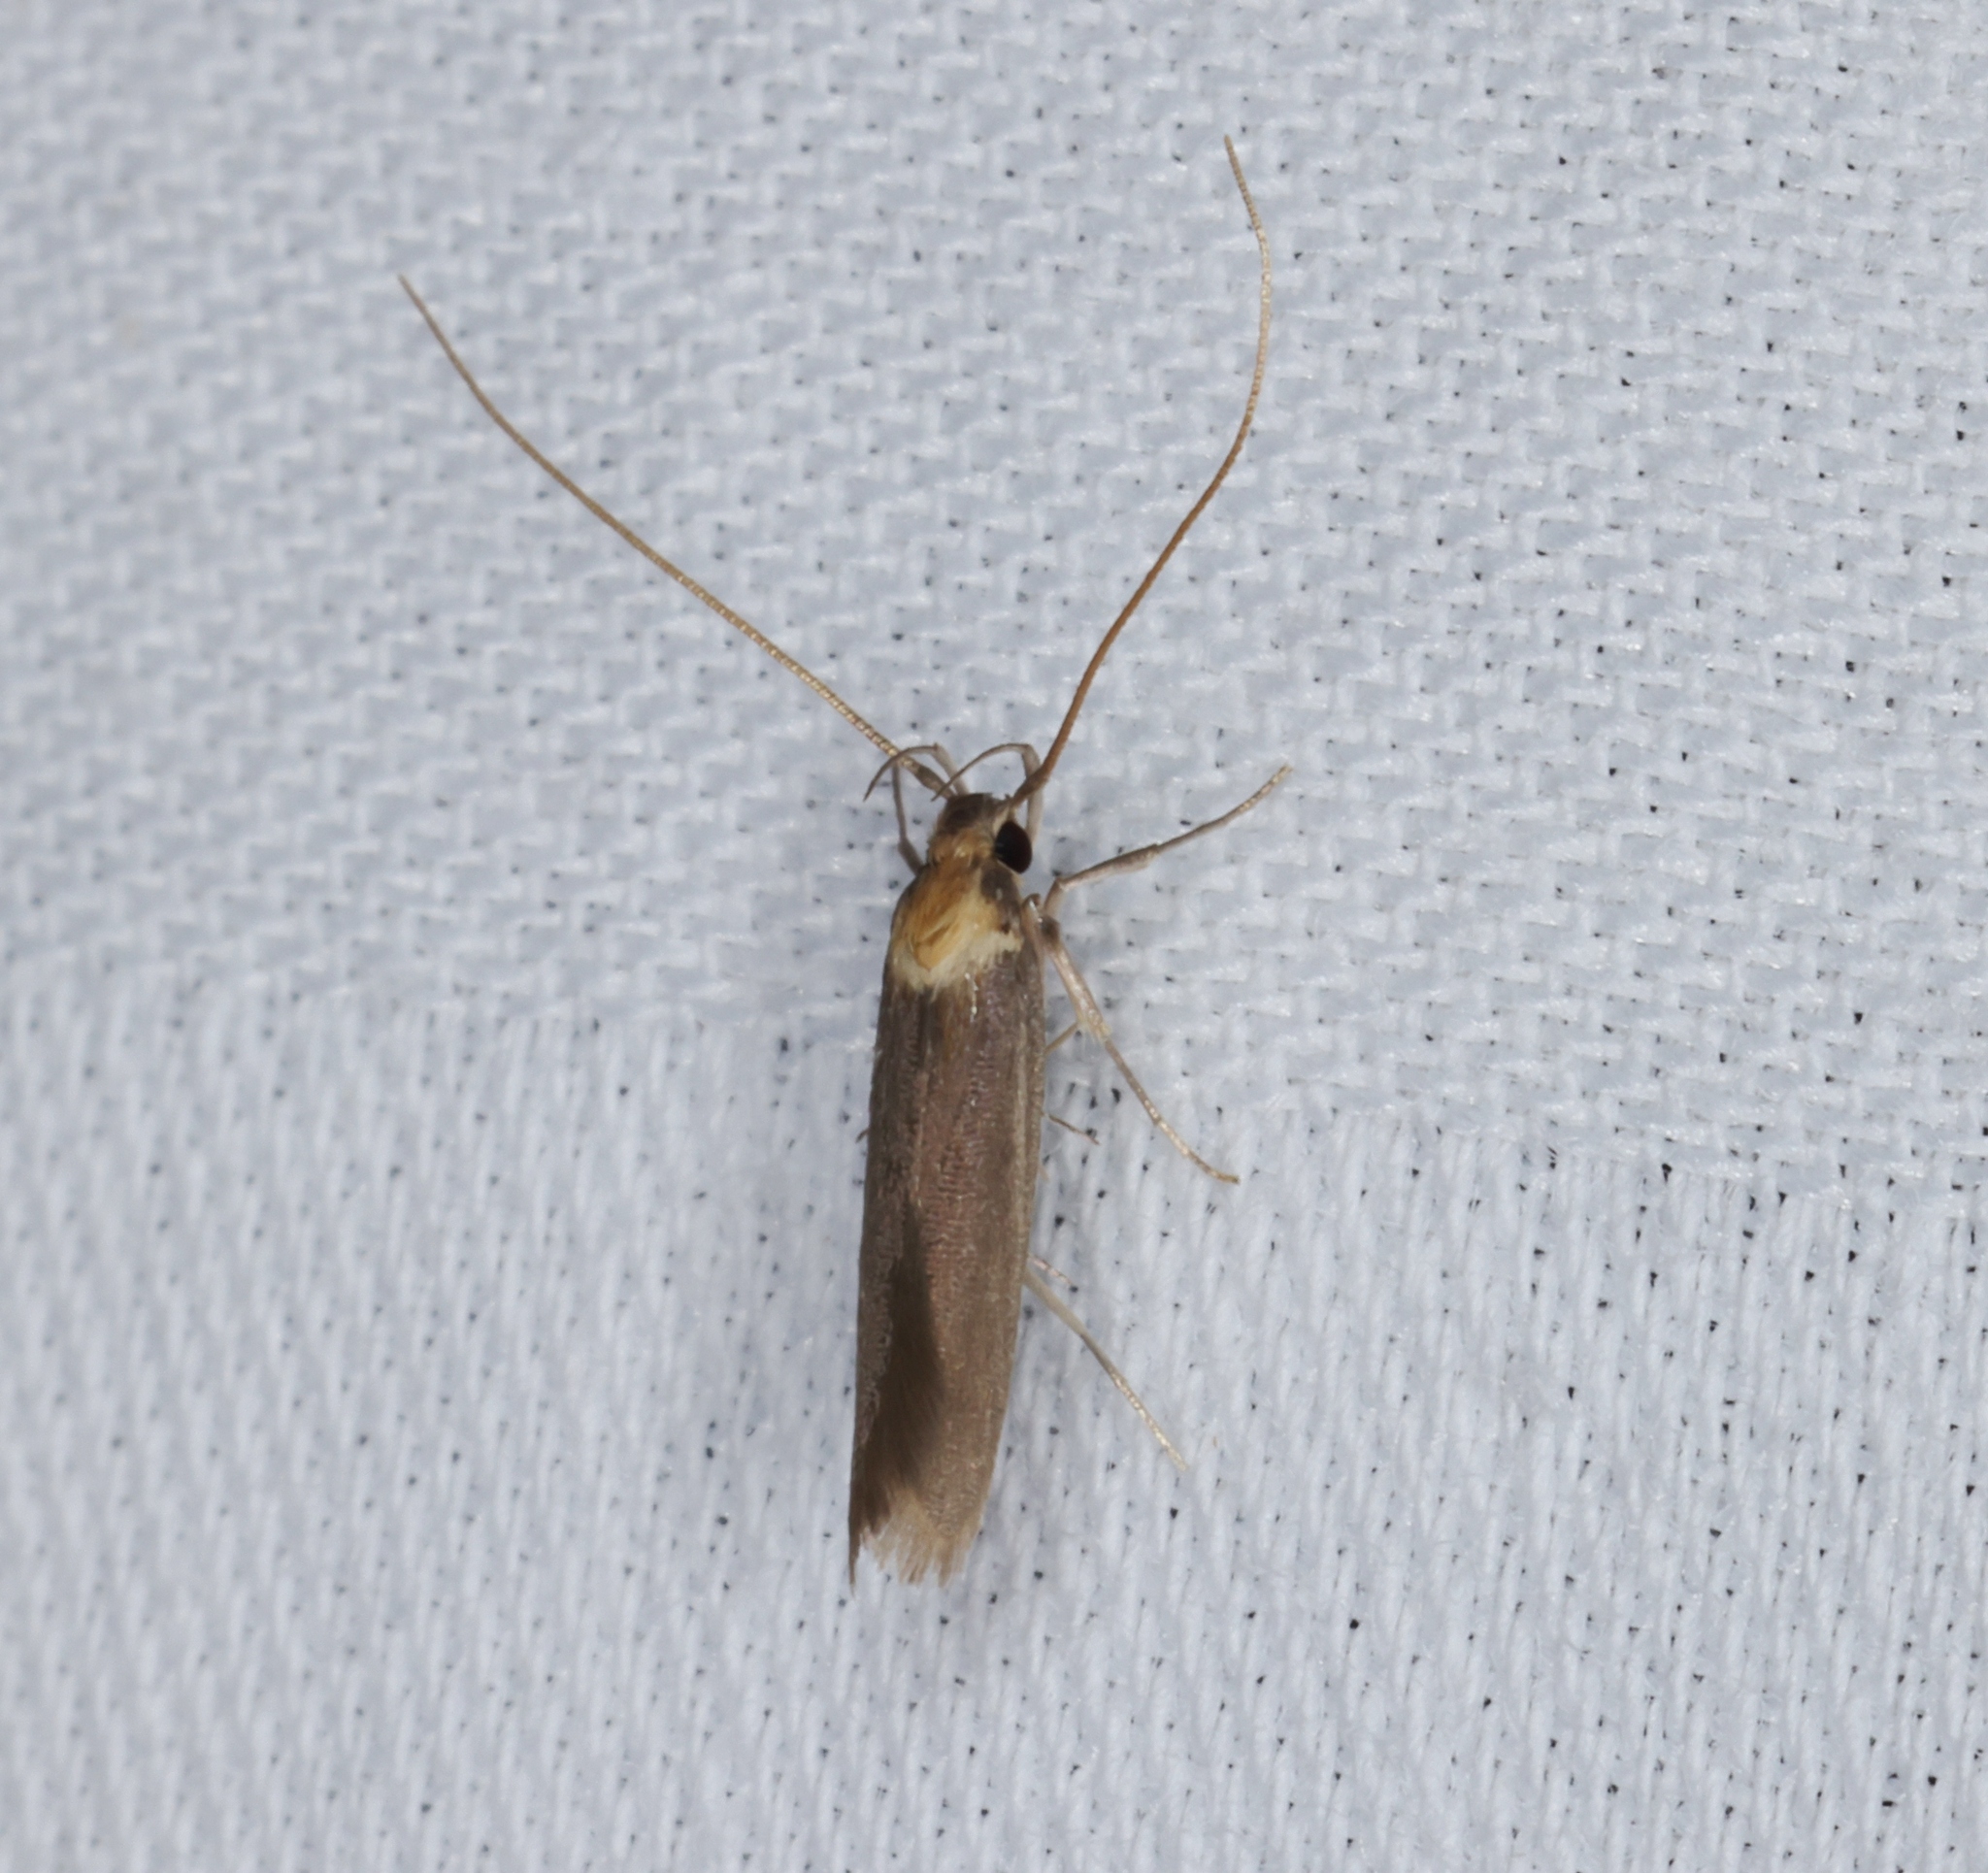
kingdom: Animalia
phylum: Arthropoda
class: Insecta
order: Lepidoptera
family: Lecithoceridae
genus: Tegenocharis
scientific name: Tegenocharis tenebrans
